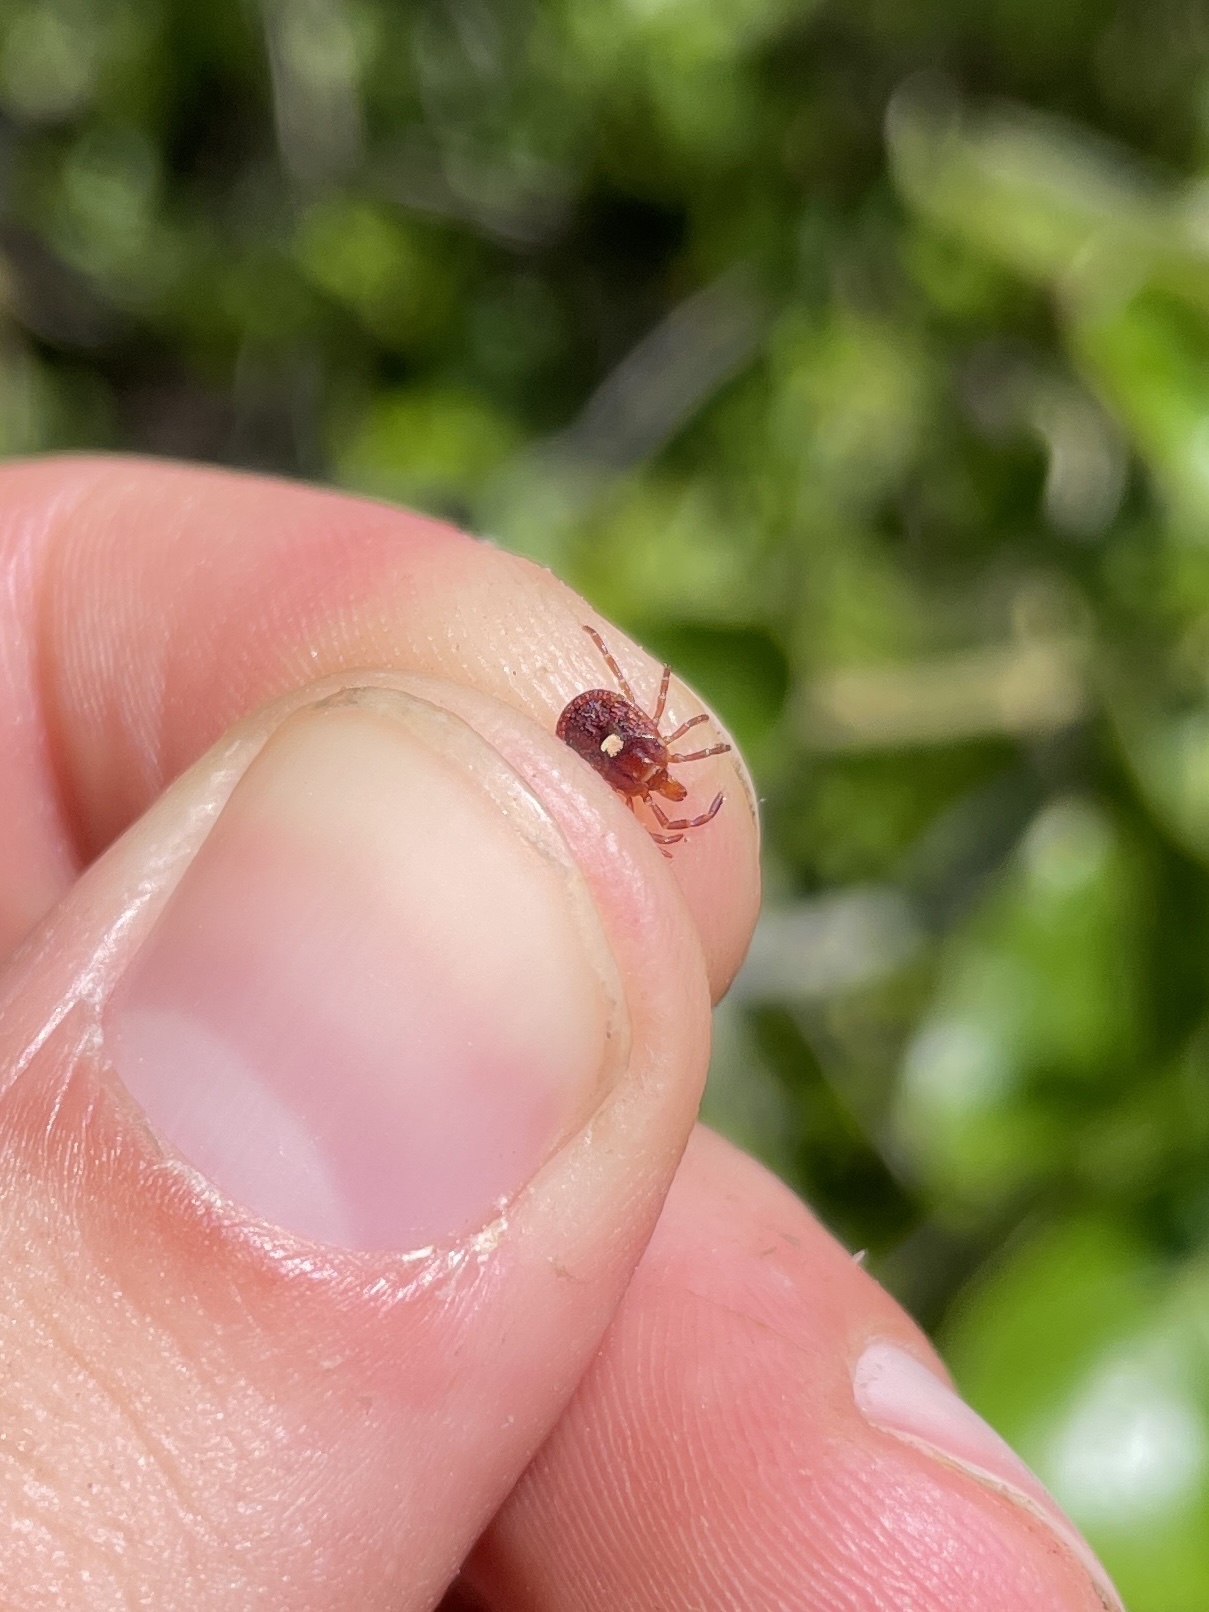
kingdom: Animalia
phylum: Arthropoda
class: Arachnida
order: Ixodida
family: Ixodidae
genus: Amblyomma
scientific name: Amblyomma americanum
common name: Lone star tick
